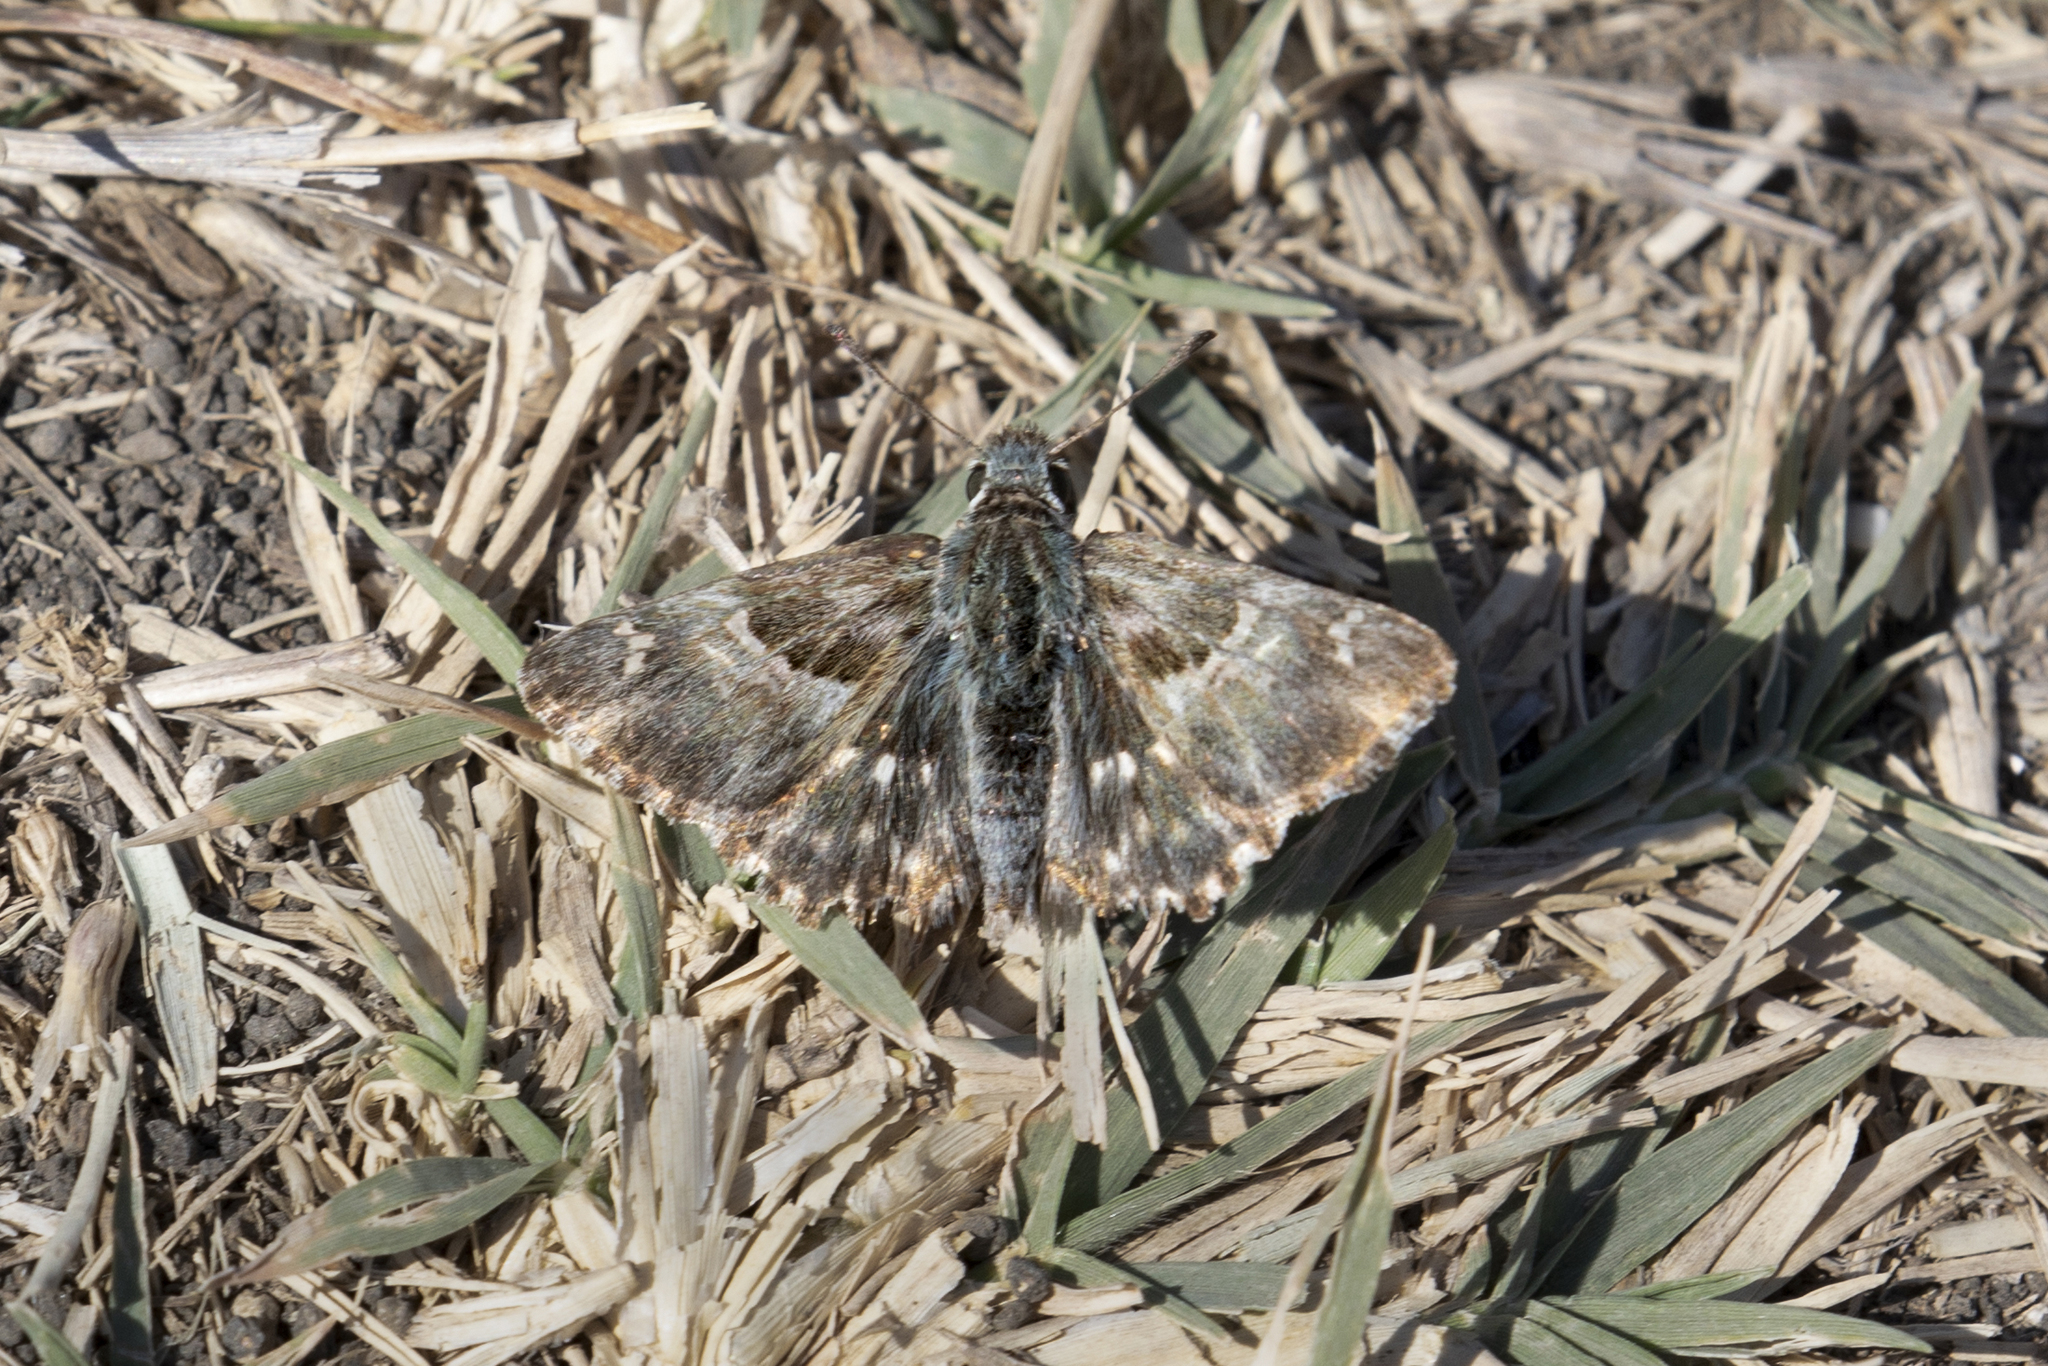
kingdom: Animalia
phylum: Arthropoda
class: Insecta
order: Lepidoptera
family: Hesperiidae
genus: Syrichtus
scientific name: Syrichtus
